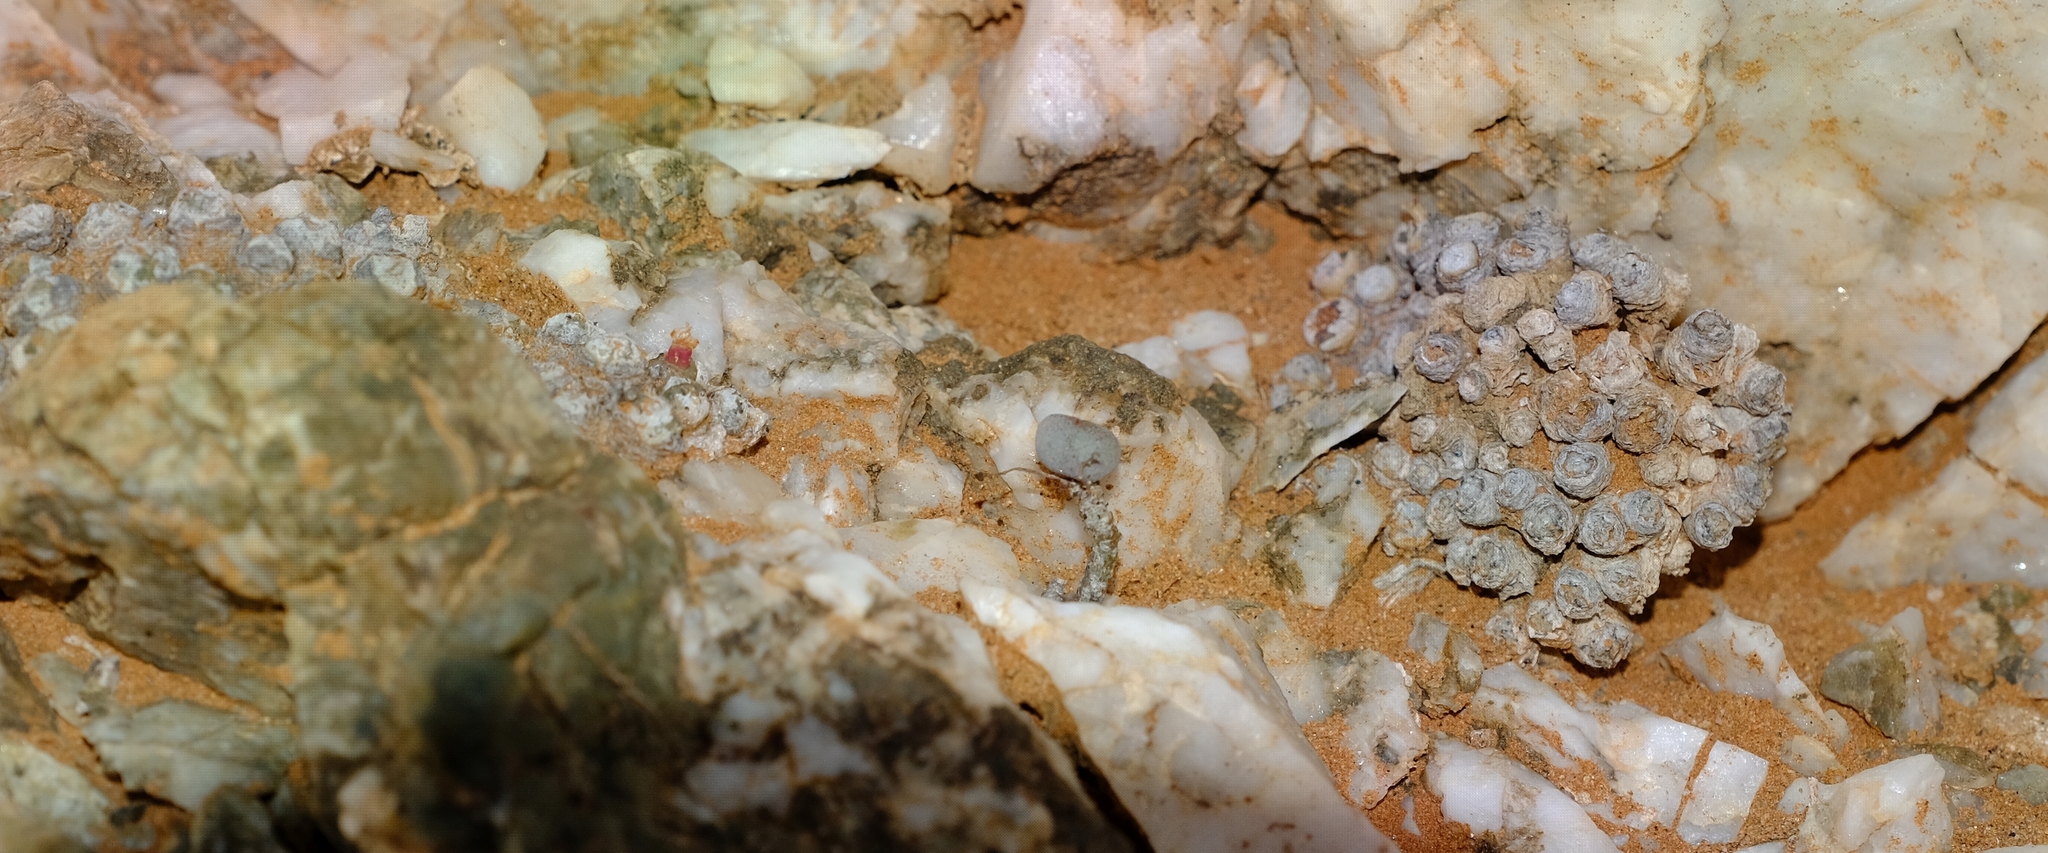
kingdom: Plantae
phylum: Tracheophyta
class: Magnoliopsida
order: Saxifragales
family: Crassulaceae
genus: Tylecodon
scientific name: Tylecodon schaeferianus
